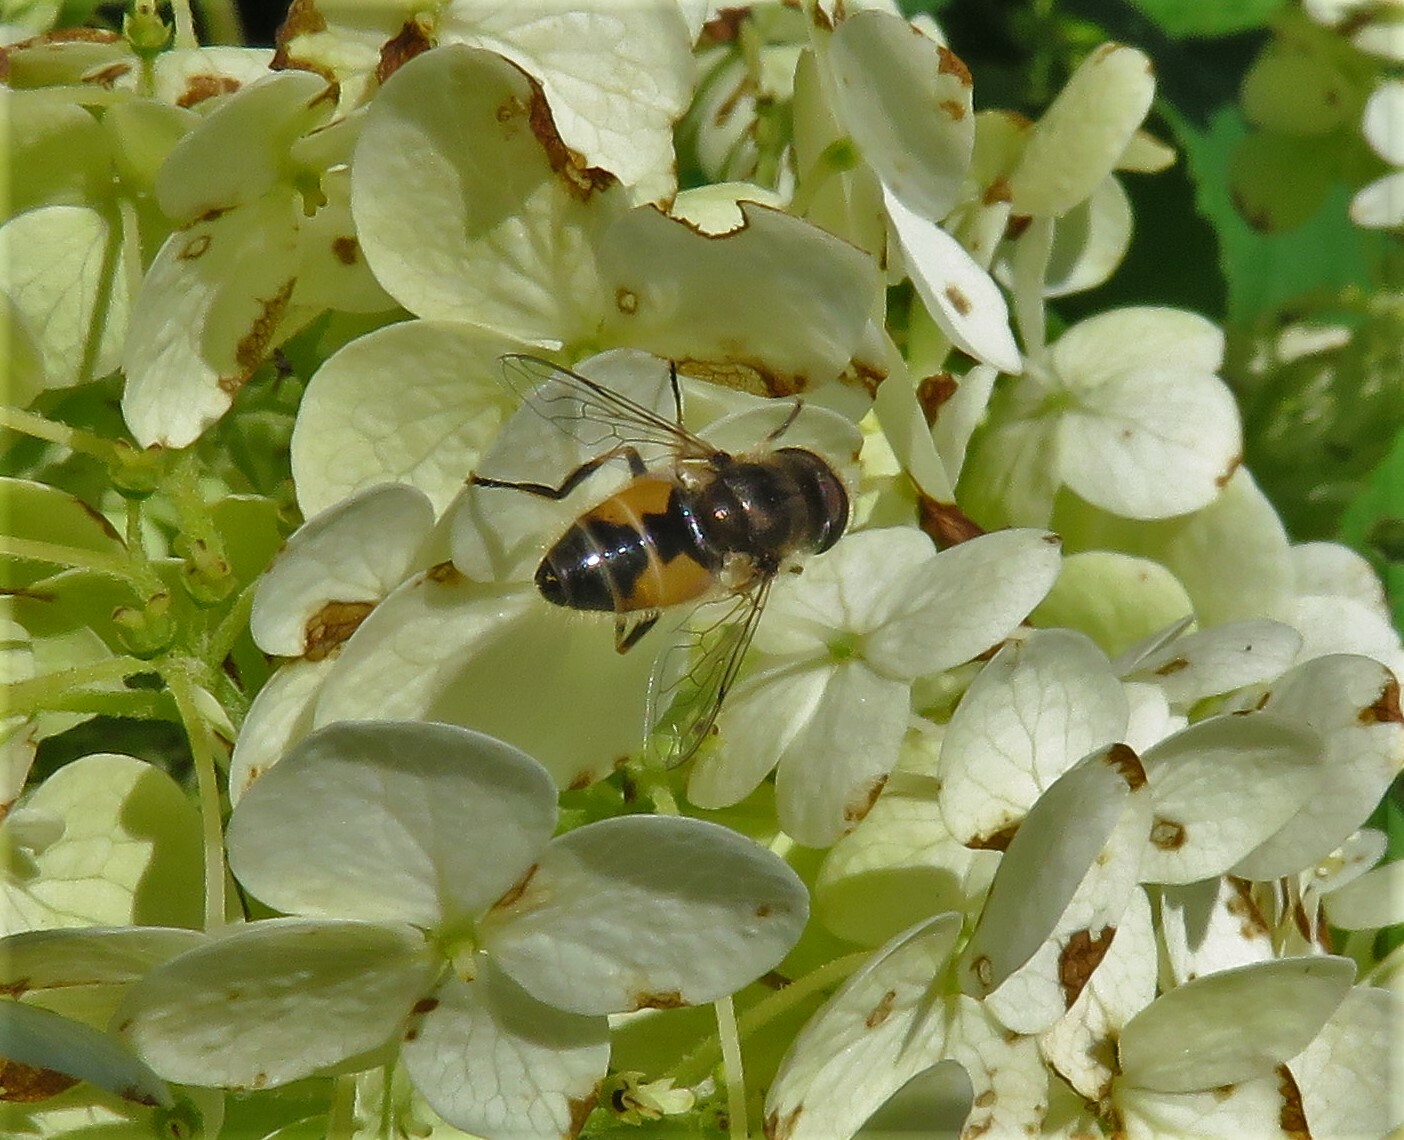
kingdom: Animalia
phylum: Arthropoda
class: Insecta
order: Diptera
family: Syrphidae
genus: Eristalis
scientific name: Eristalis arbustorum
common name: Hover fly
